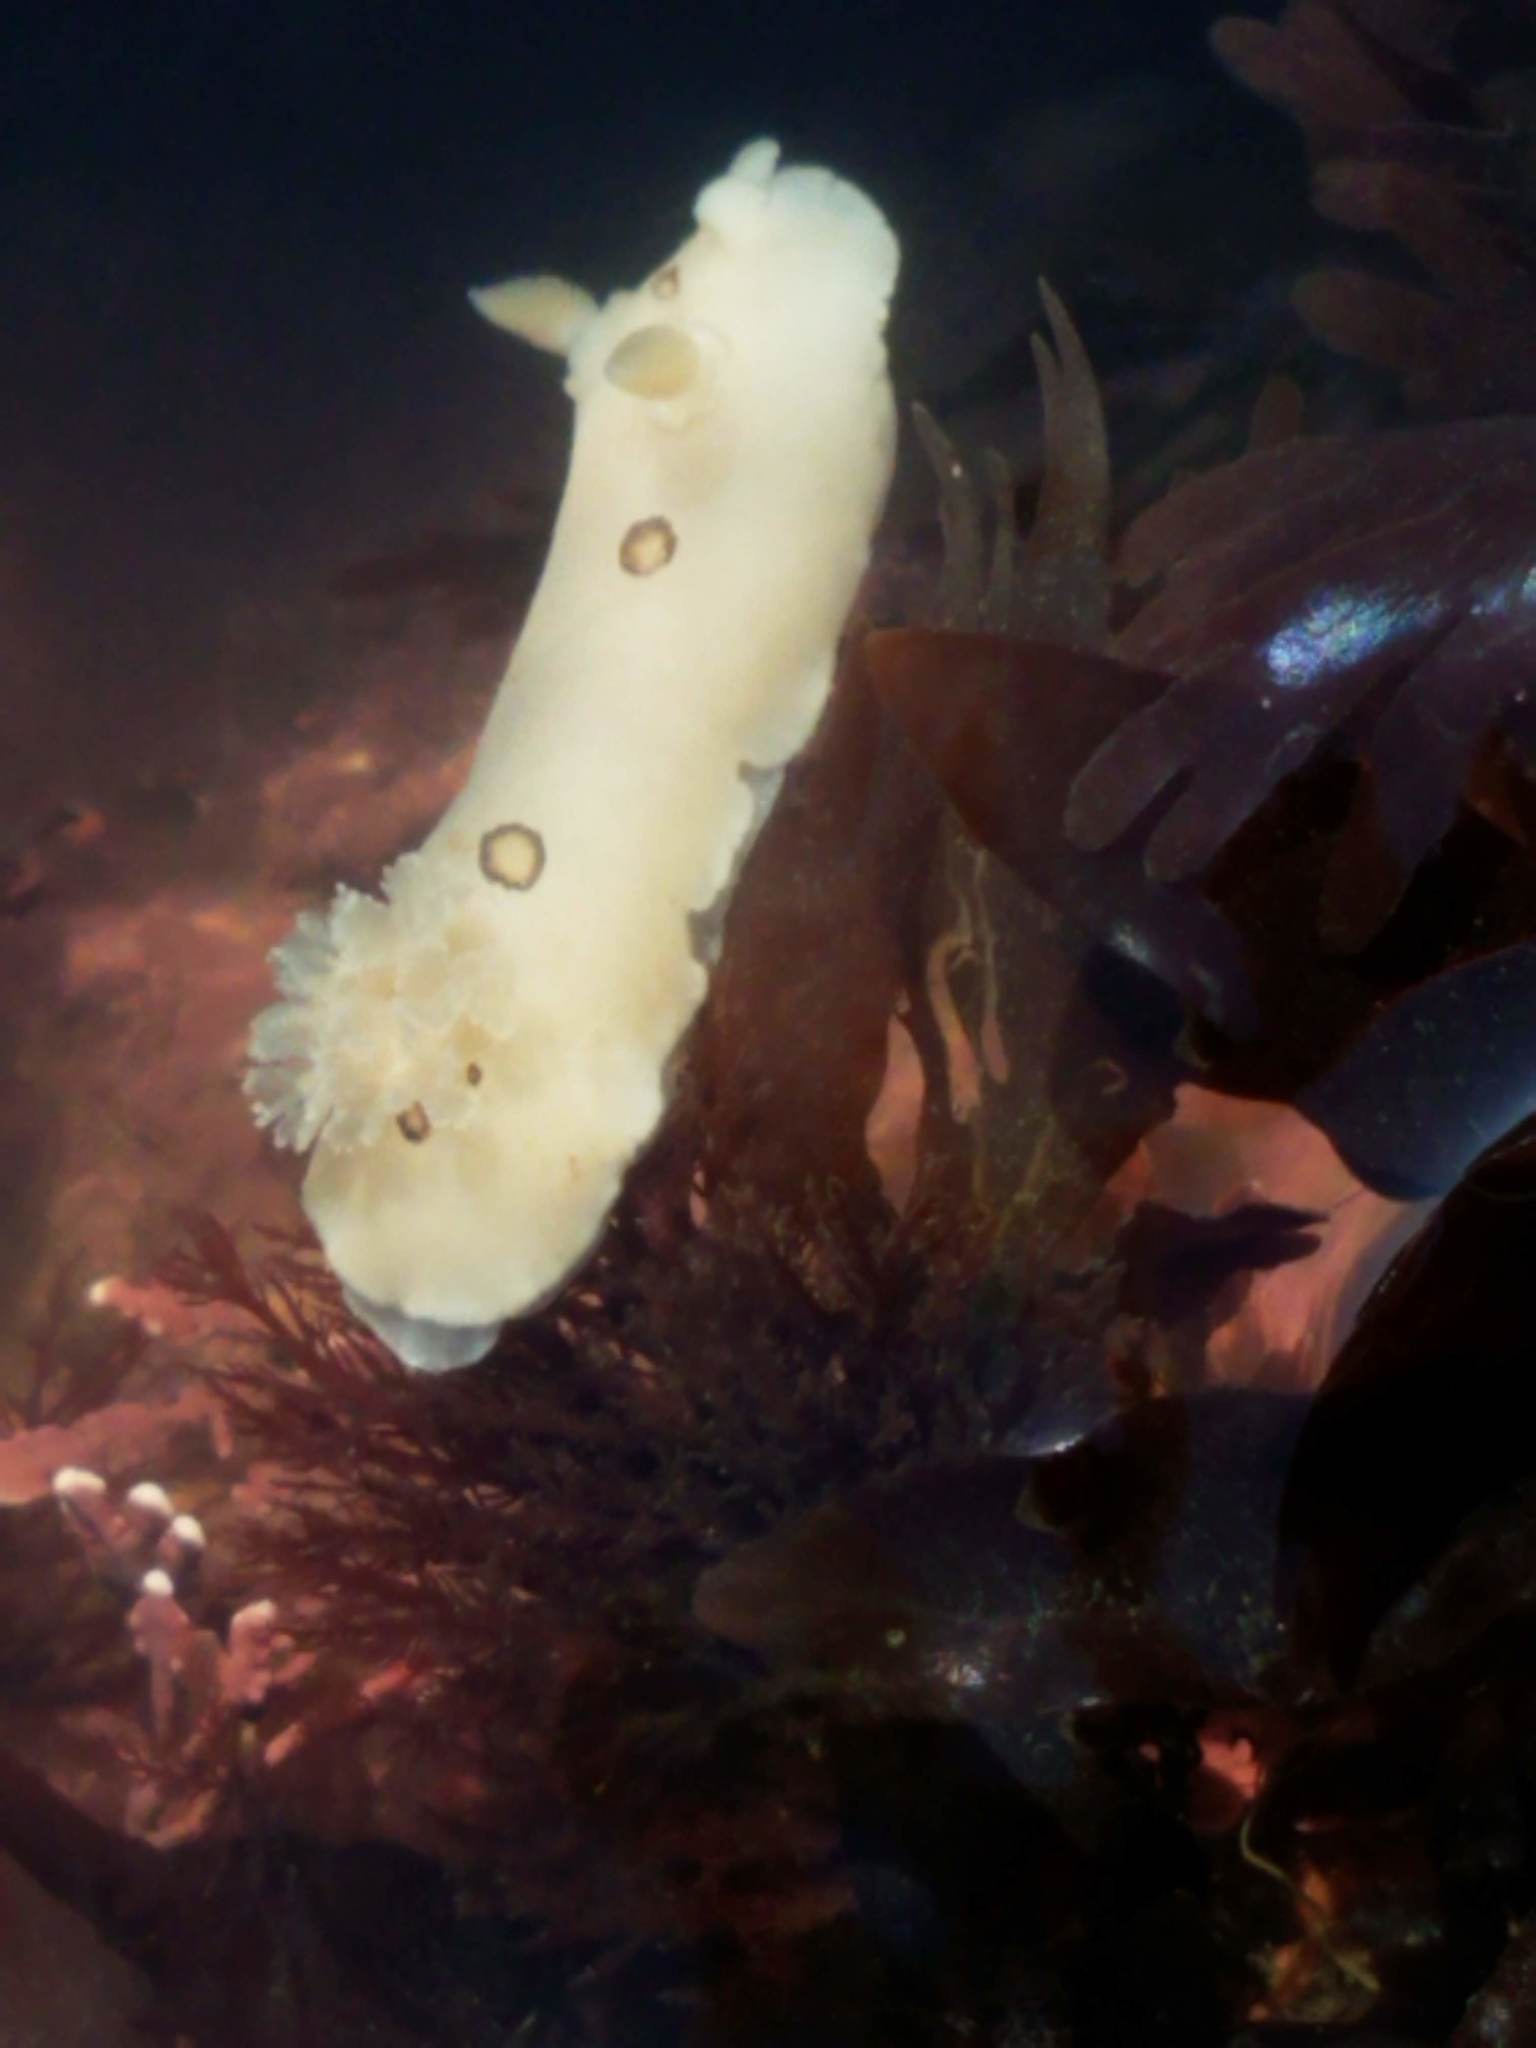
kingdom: Animalia
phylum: Mollusca
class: Gastropoda
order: Nudibranchia
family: Discodorididae
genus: Diaulula
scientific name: Diaulula sandiegensis
